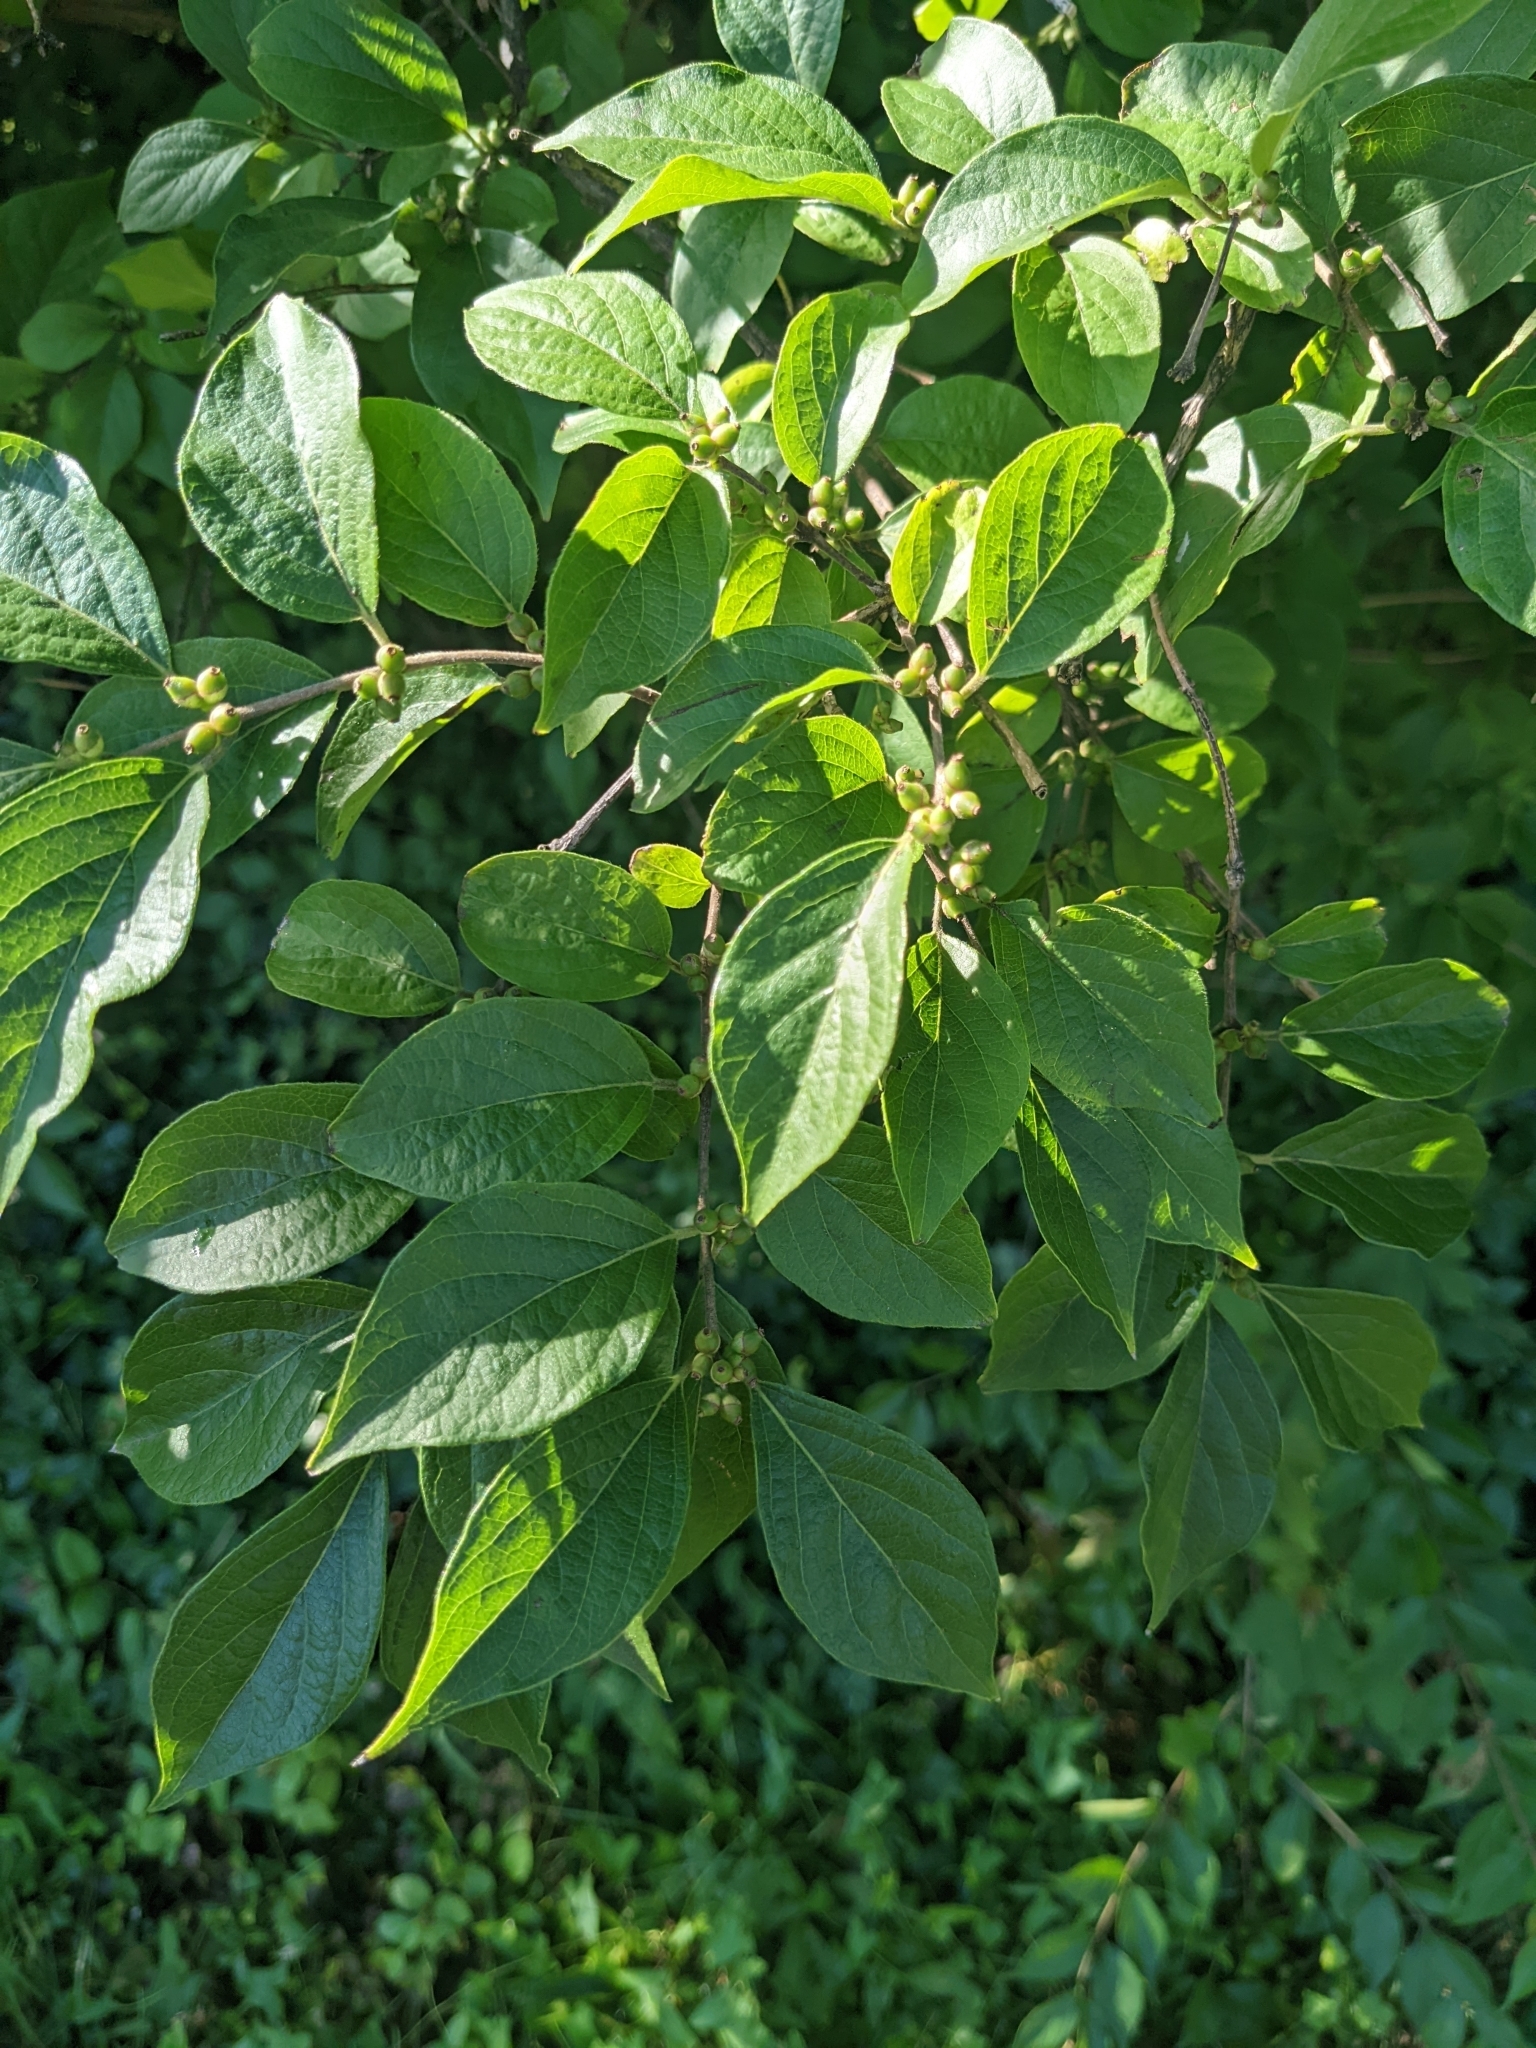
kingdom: Plantae
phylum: Tracheophyta
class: Magnoliopsida
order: Dipsacales
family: Caprifoliaceae
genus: Lonicera
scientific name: Lonicera maackii
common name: Amur honeysuckle
